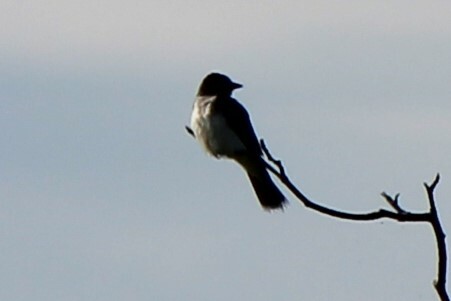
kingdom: Animalia
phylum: Chordata
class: Aves
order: Passeriformes
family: Tyrannidae
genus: Tyrannus
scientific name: Tyrannus tyrannus
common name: Eastern kingbird
